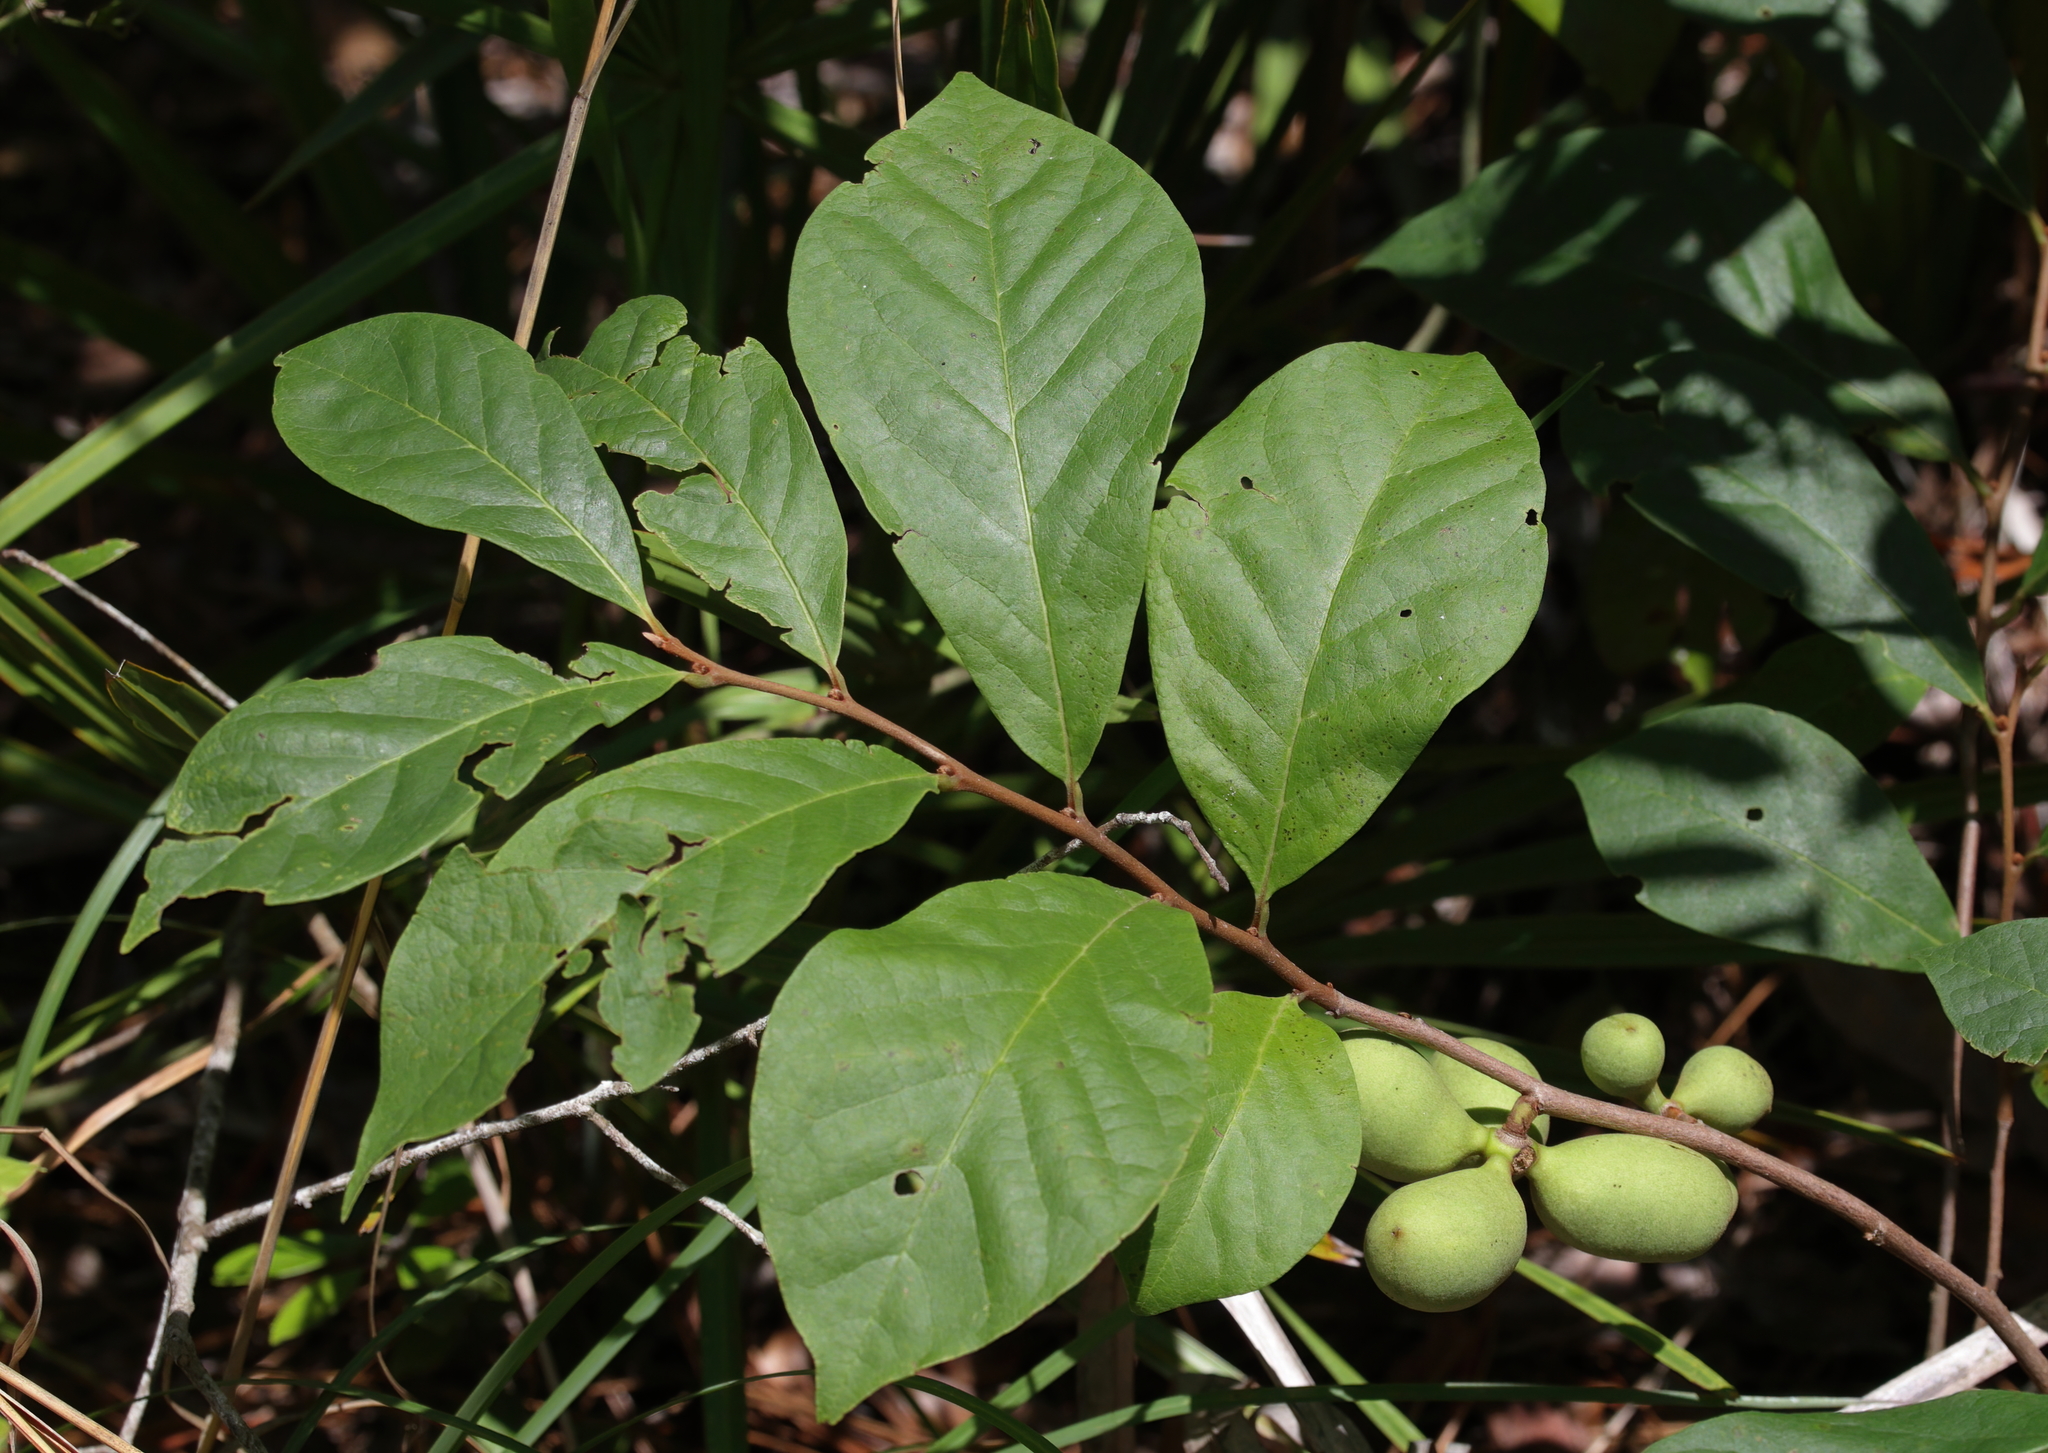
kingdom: Plantae
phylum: Tracheophyta
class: Magnoliopsida
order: Magnoliales
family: Annonaceae
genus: Asimina
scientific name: Asimina parviflora
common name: Dwarf pawpaw
